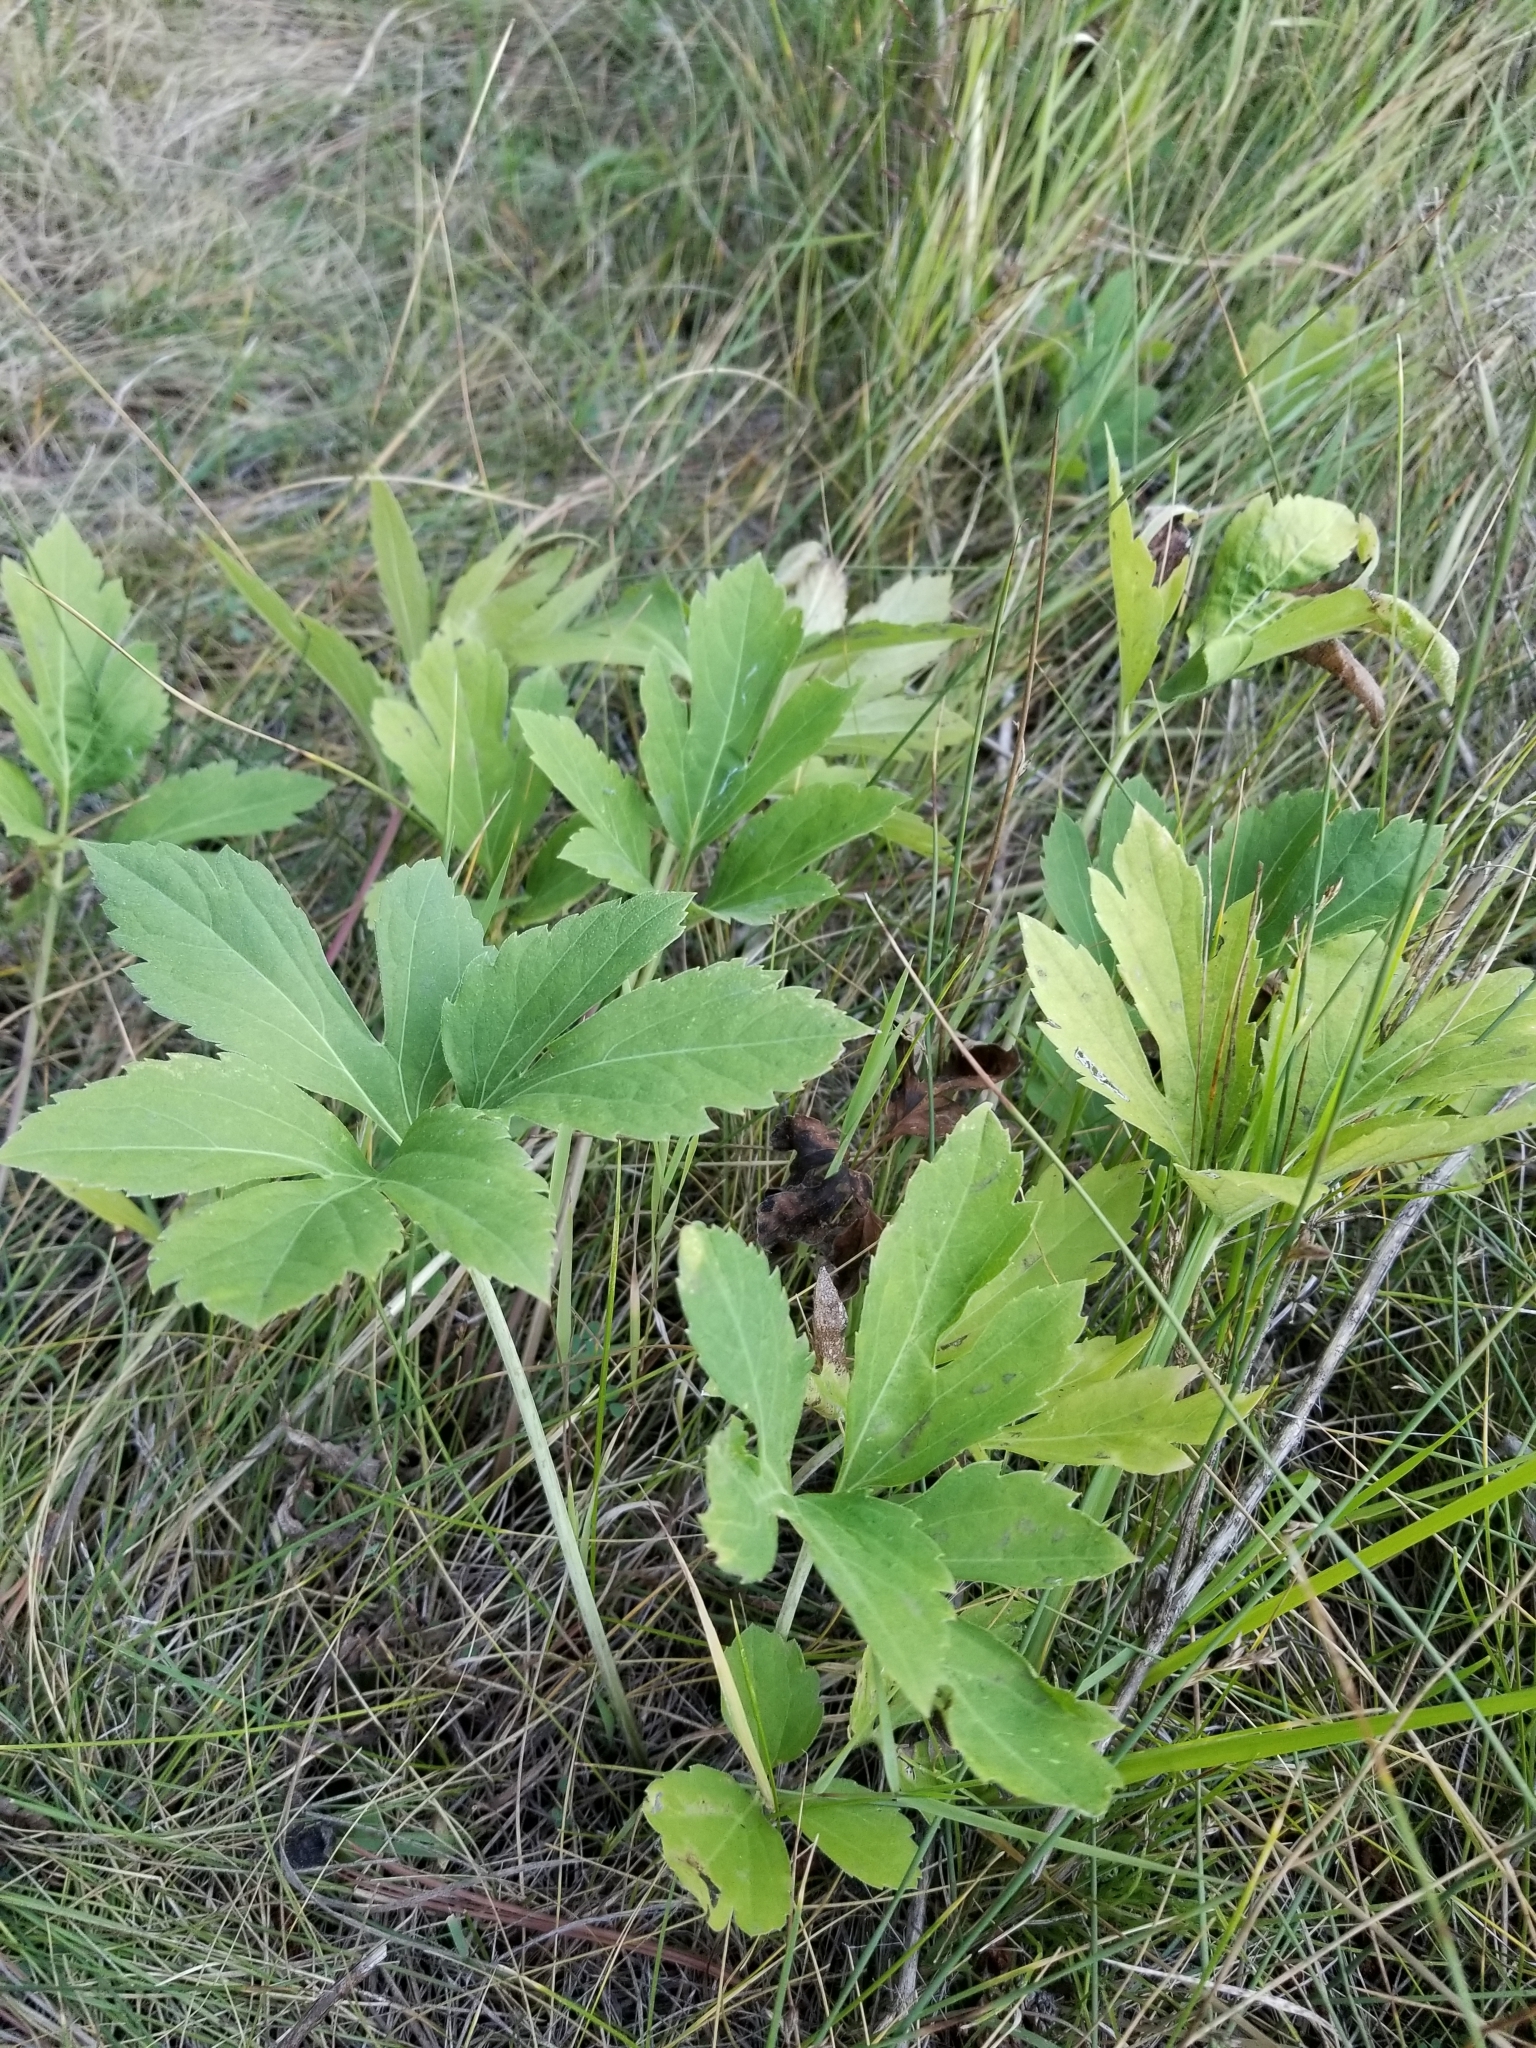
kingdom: Plantae
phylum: Tracheophyta
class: Magnoliopsida
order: Asterales
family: Asteraceae
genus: Rudbeckia
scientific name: Rudbeckia laciniata
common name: Coneflower
